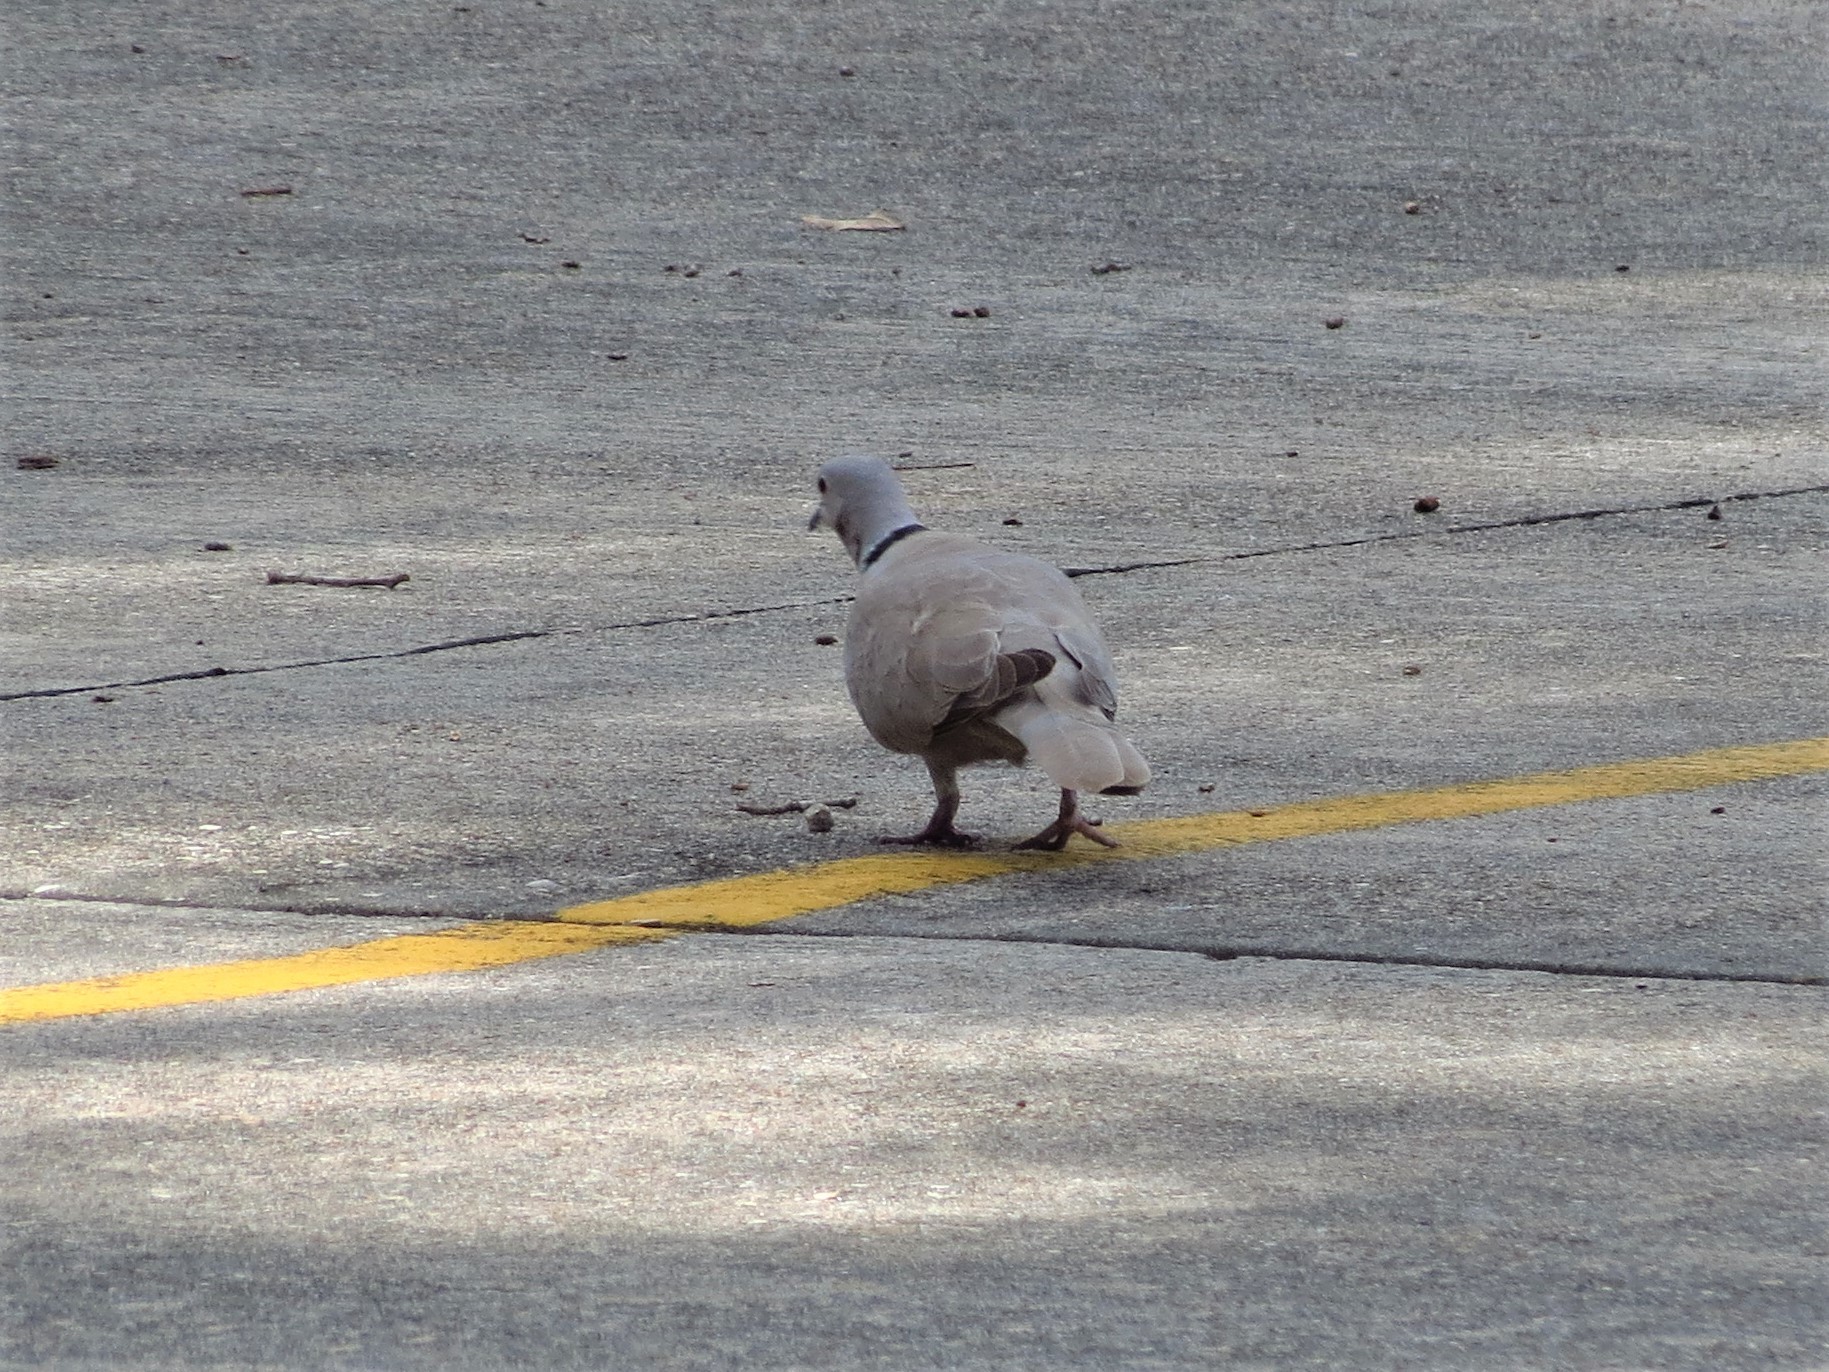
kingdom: Animalia
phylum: Chordata
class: Aves
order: Columbiformes
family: Columbidae
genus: Streptopelia
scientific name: Streptopelia decaocto
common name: Eurasian collared dove
